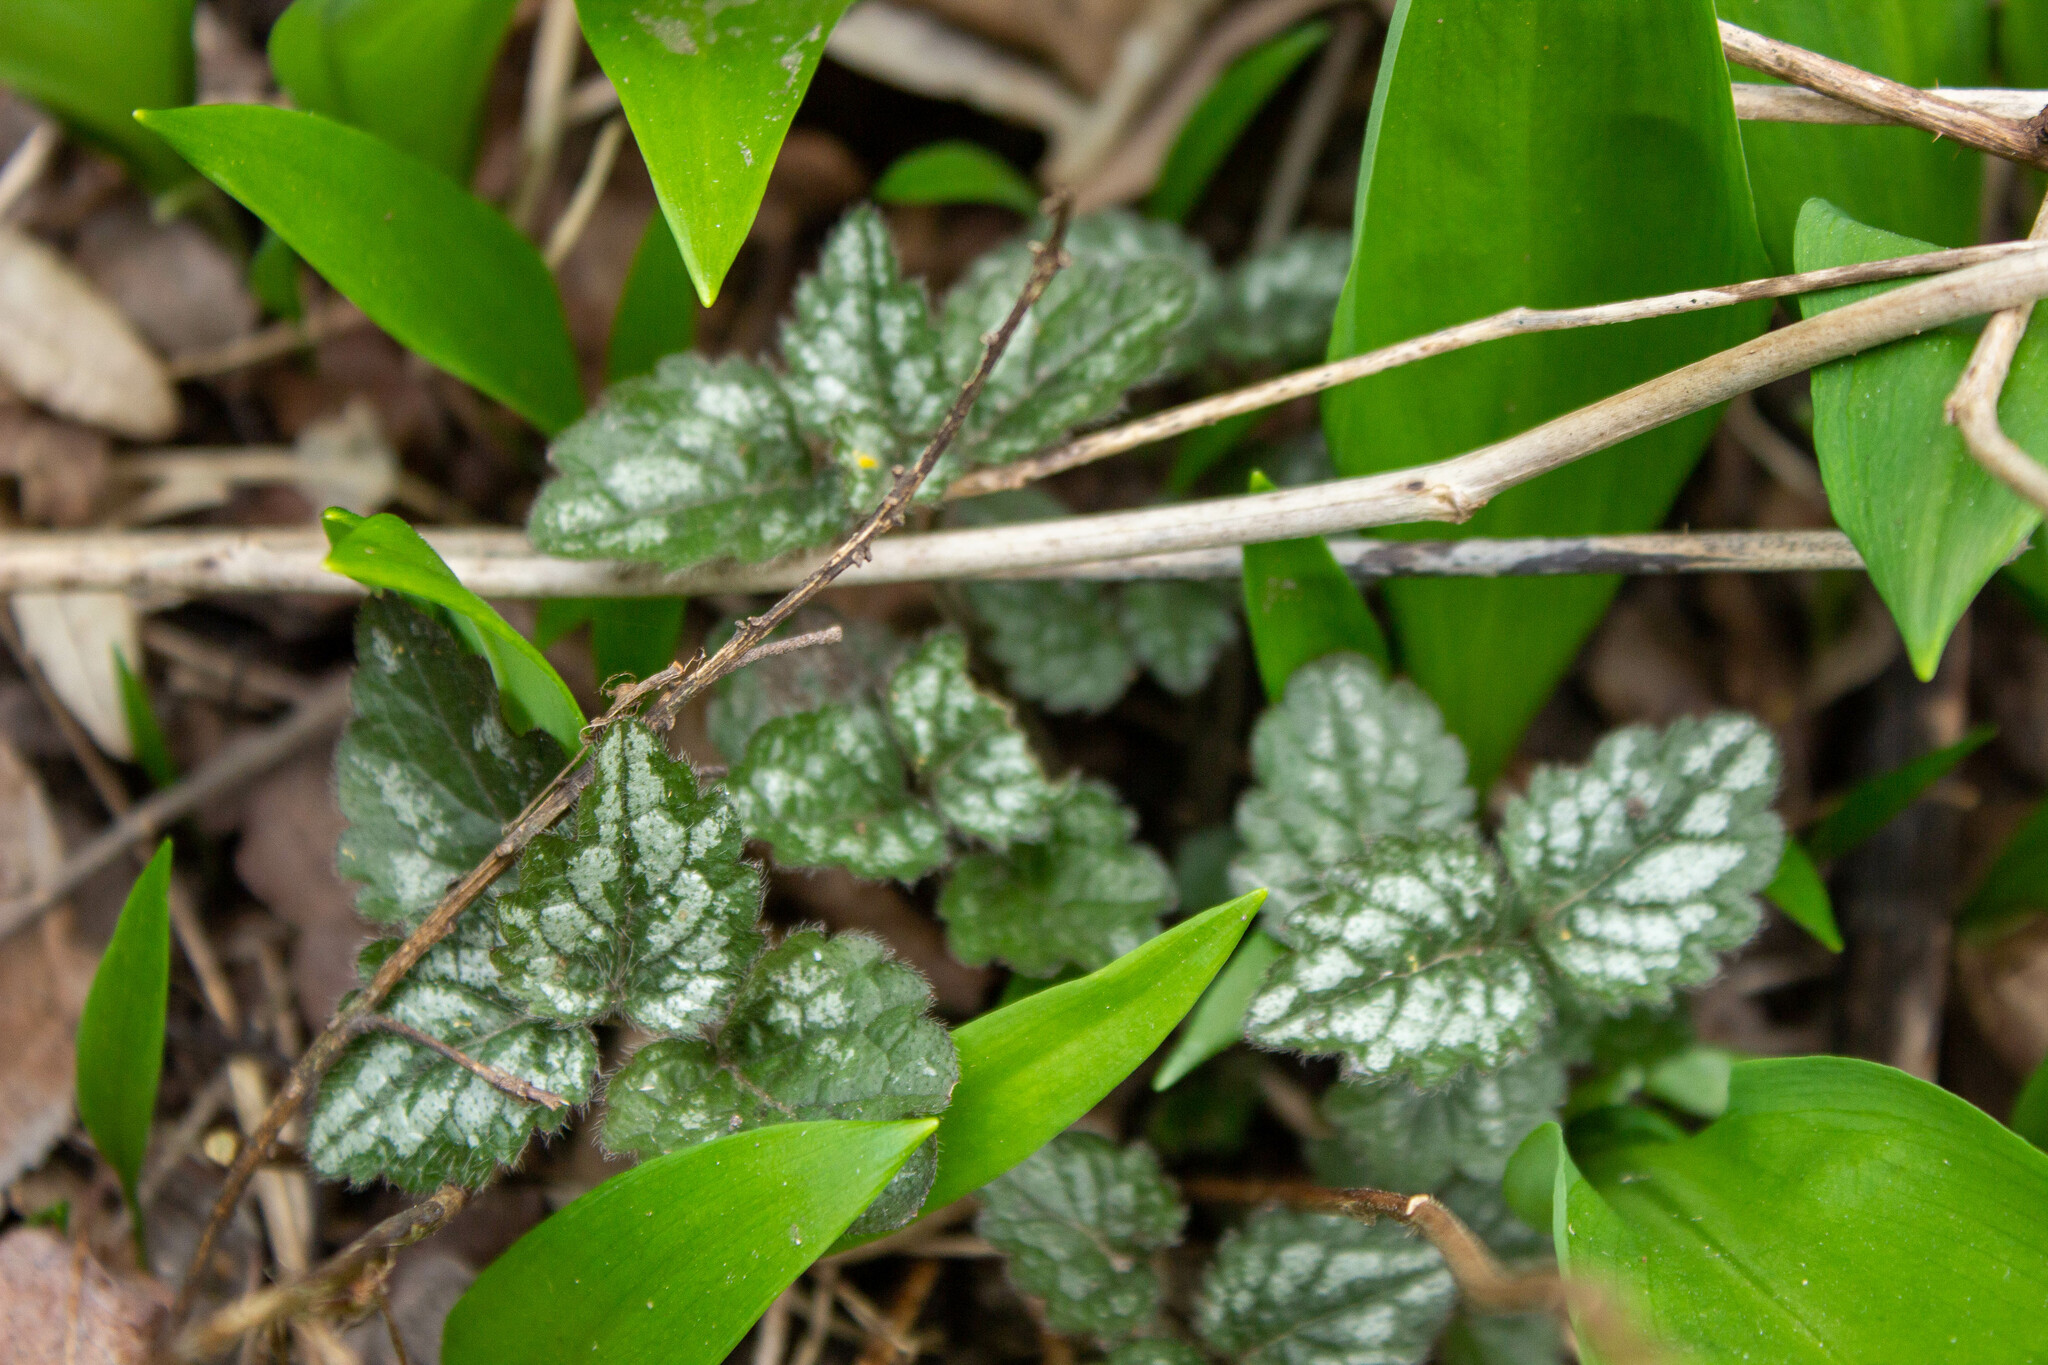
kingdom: Plantae
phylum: Tracheophyta
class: Magnoliopsida
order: Lamiales
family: Lamiaceae
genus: Lamium
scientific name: Lamium galeobdolon
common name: Yellow archangel
